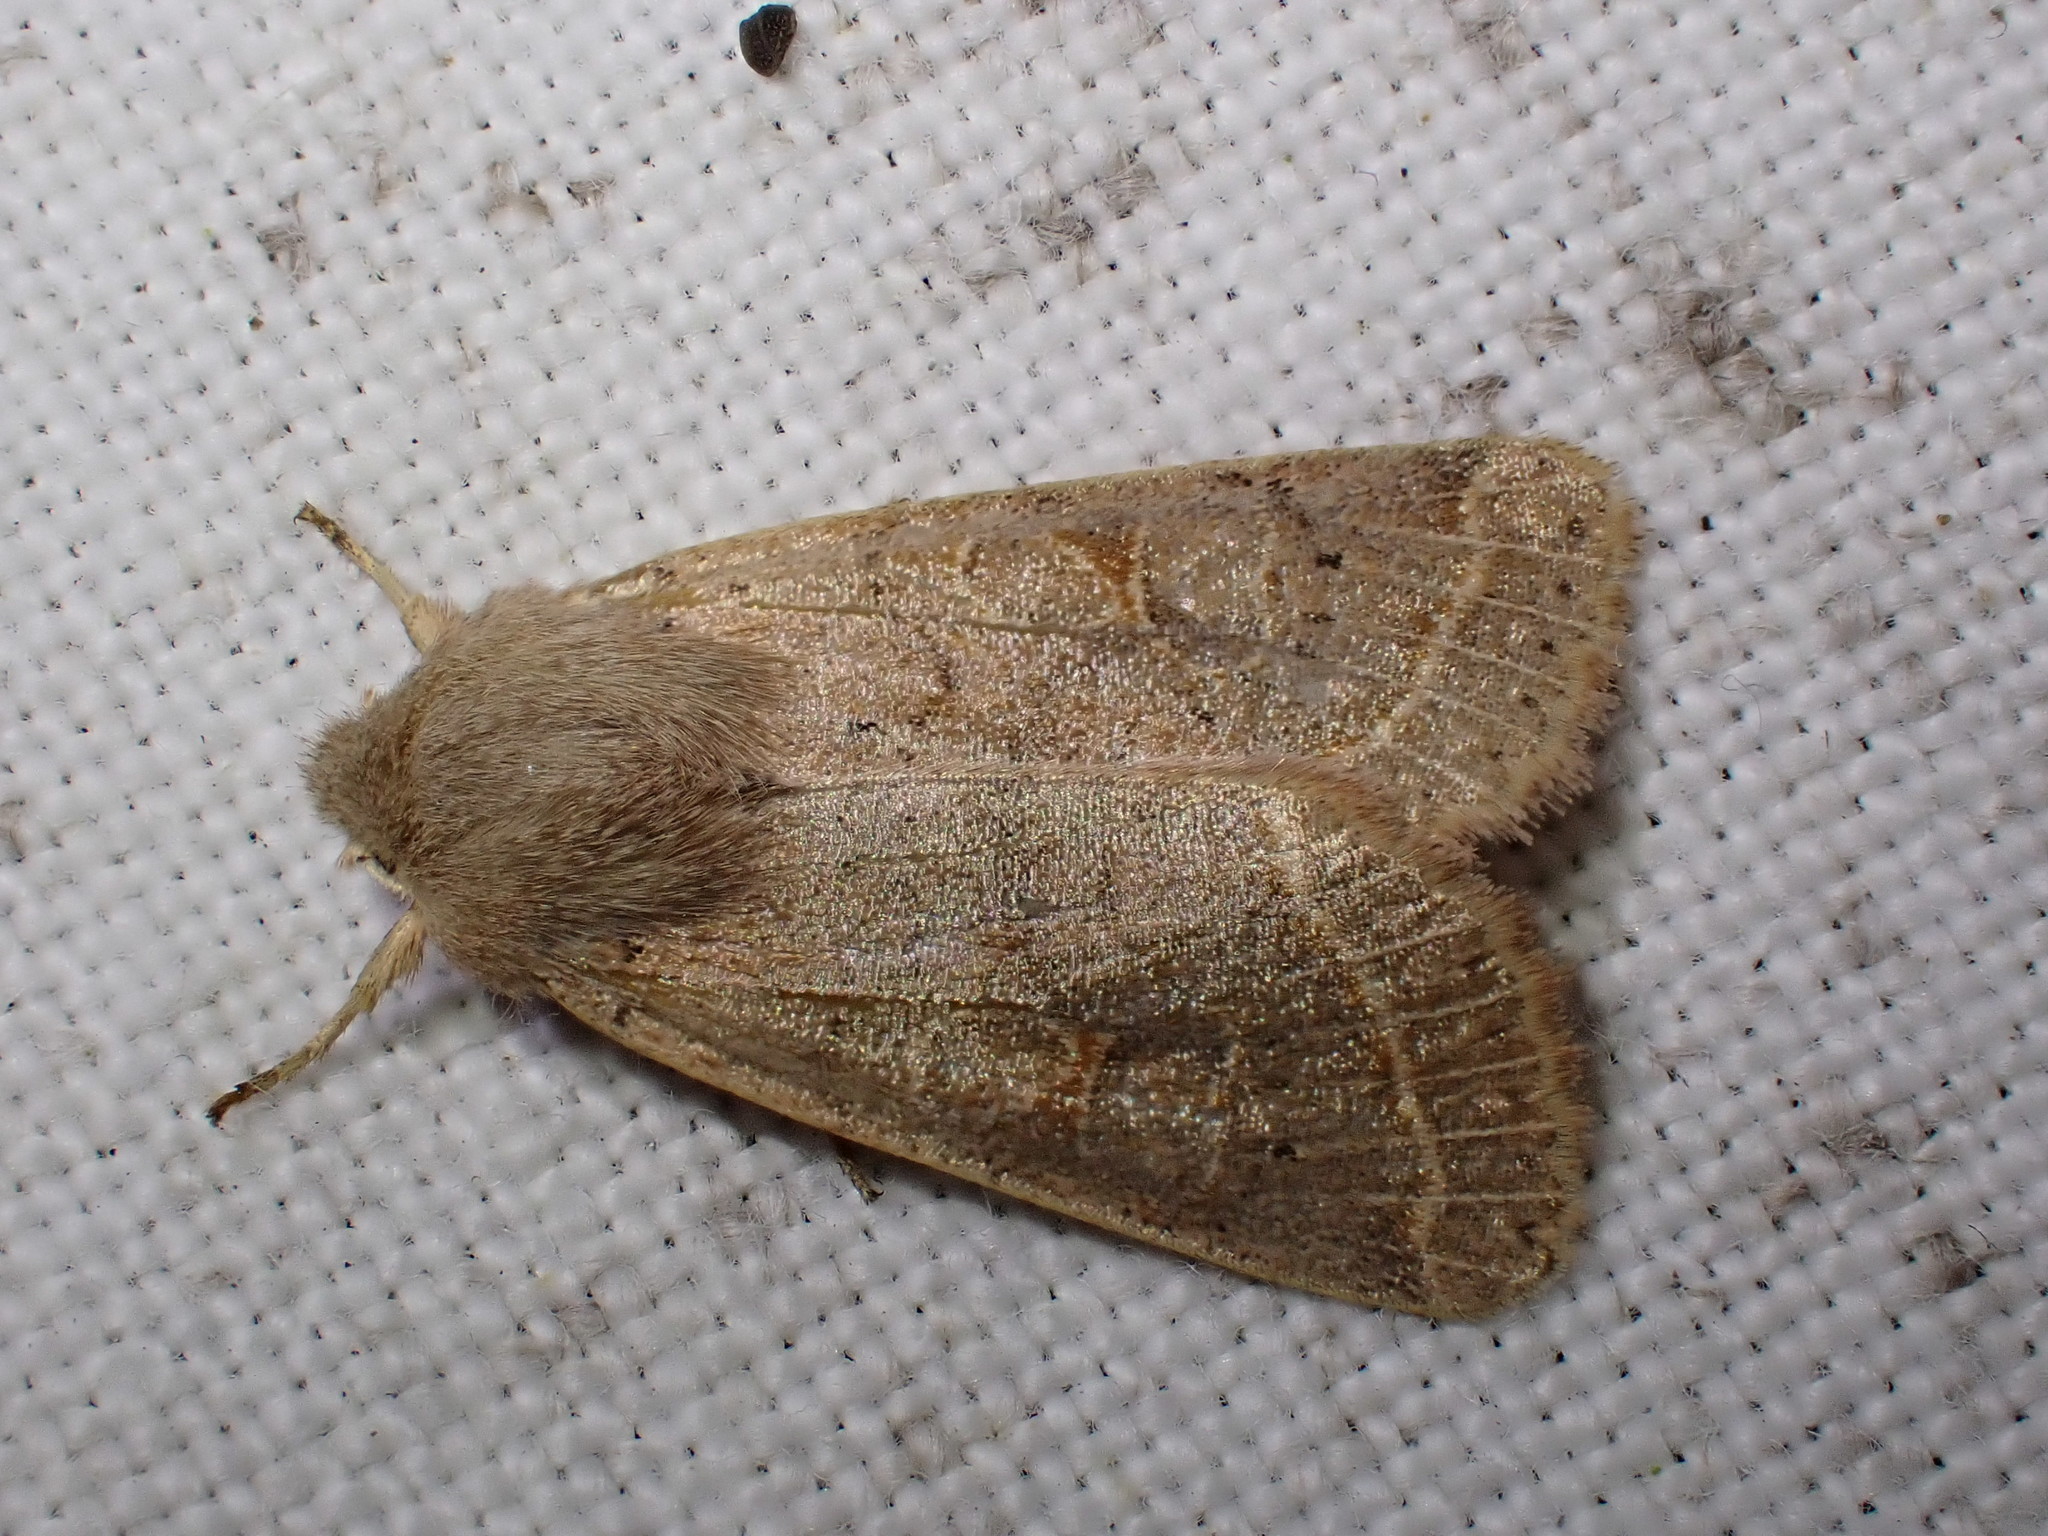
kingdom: Animalia
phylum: Arthropoda
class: Insecta
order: Lepidoptera
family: Noctuidae
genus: Orthosia
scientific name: Orthosia cerasi
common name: Common quaker
